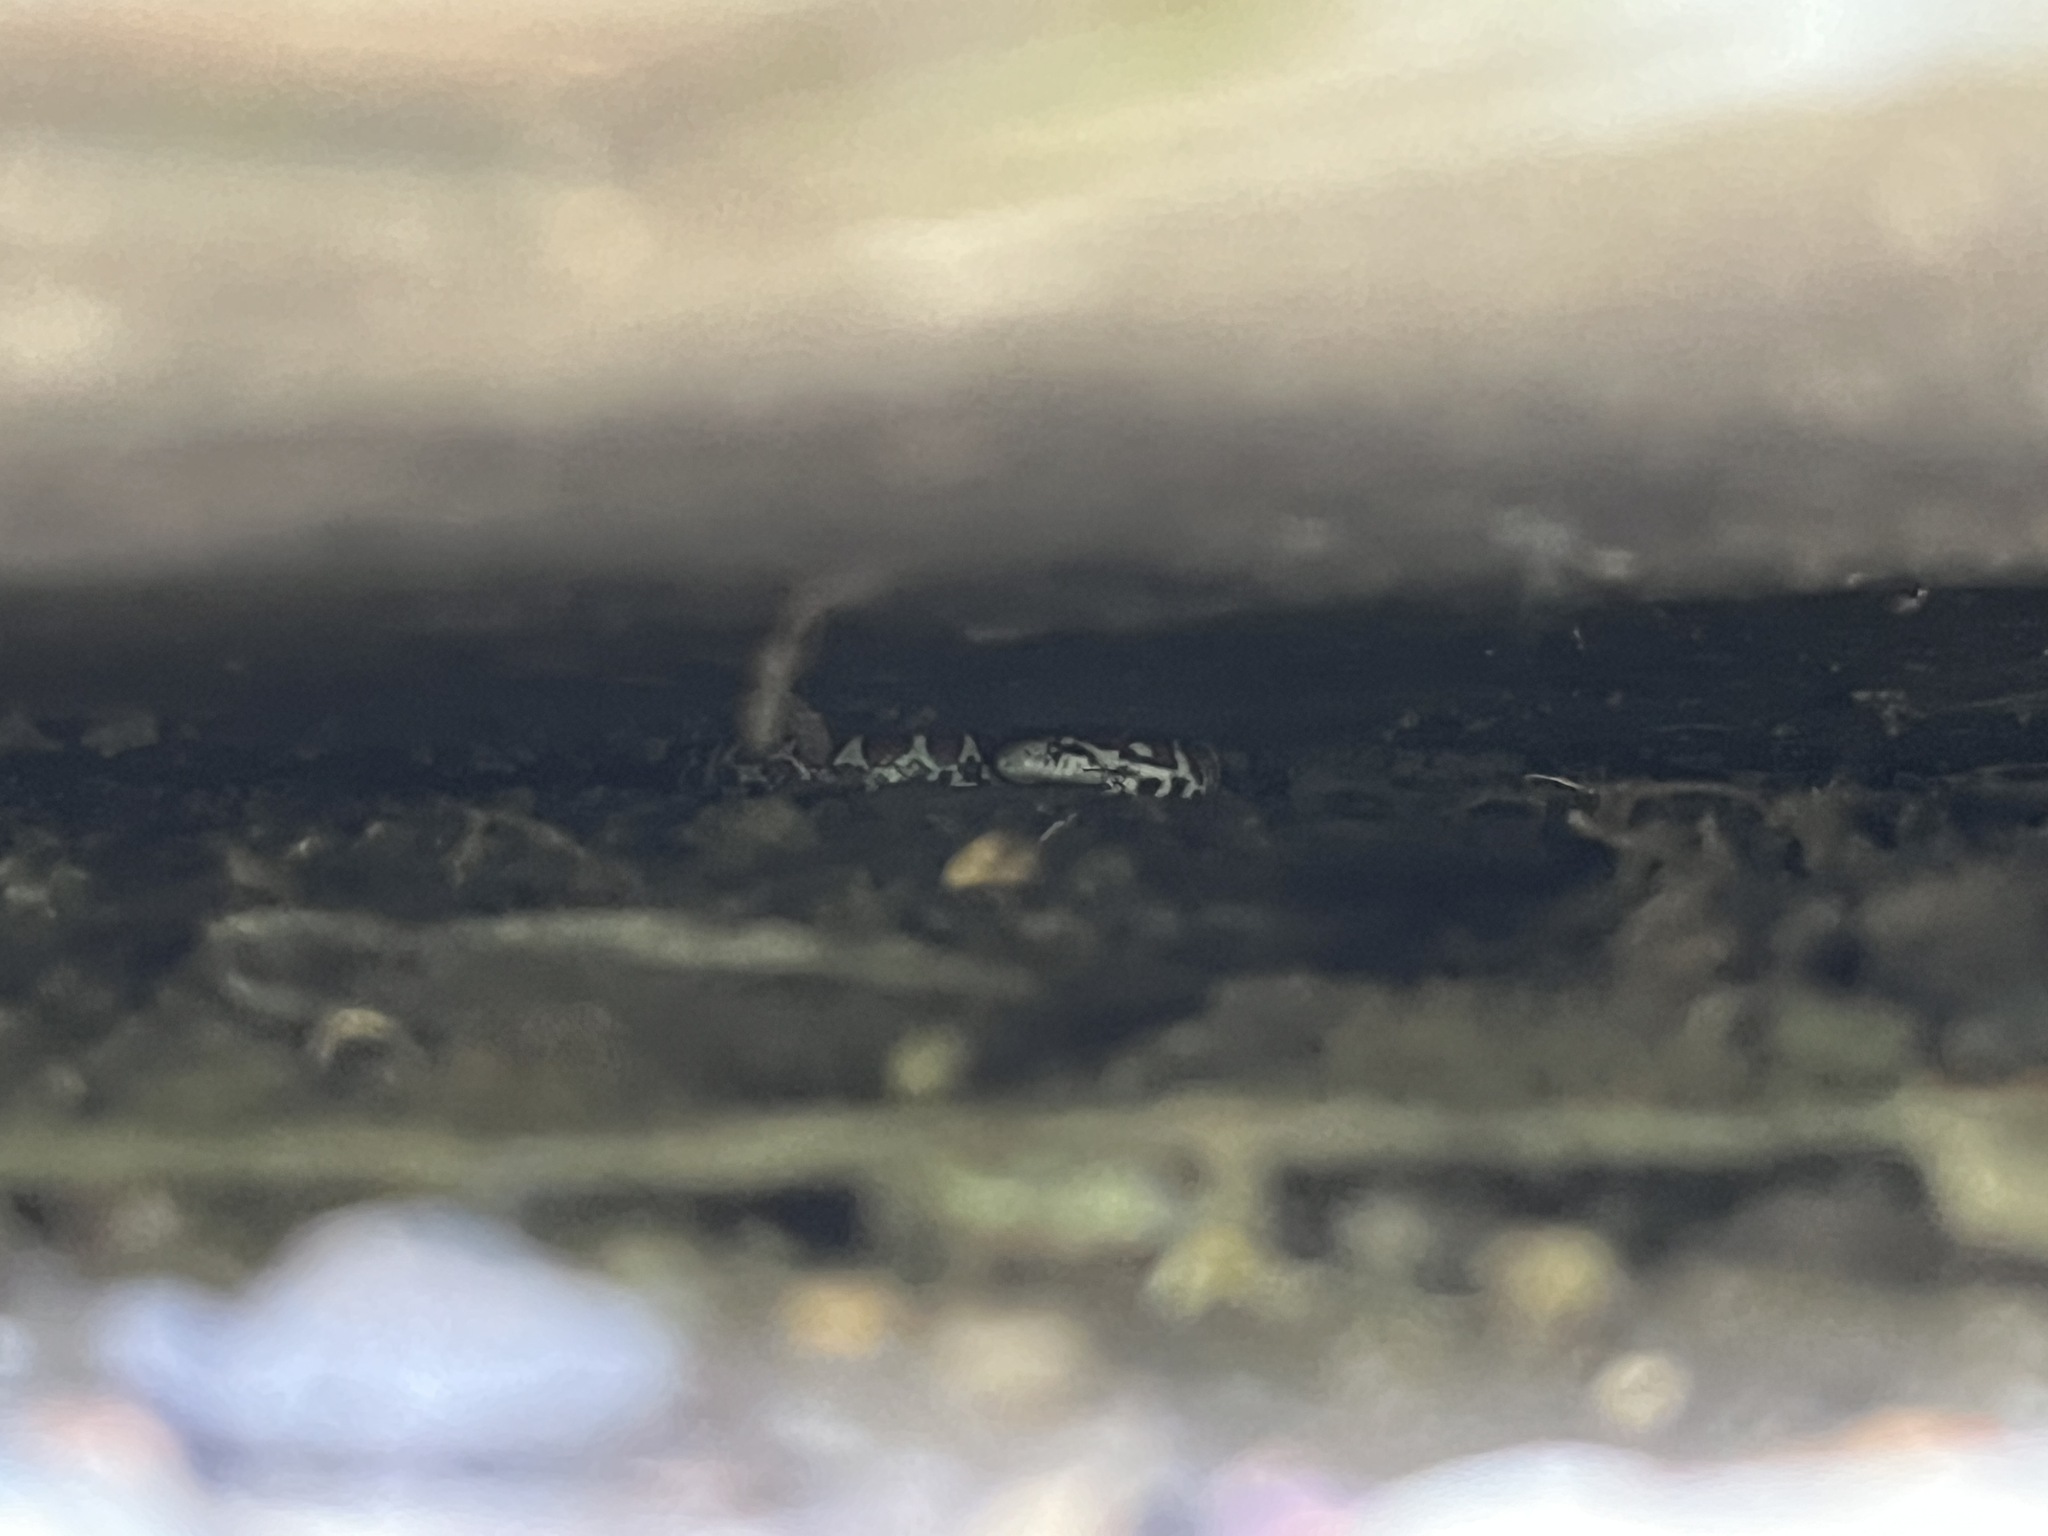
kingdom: Animalia
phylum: Chordata
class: Squamata
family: Colubridae
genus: Lampropeltis
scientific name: Lampropeltis triangulum
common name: Eastern milksnake
